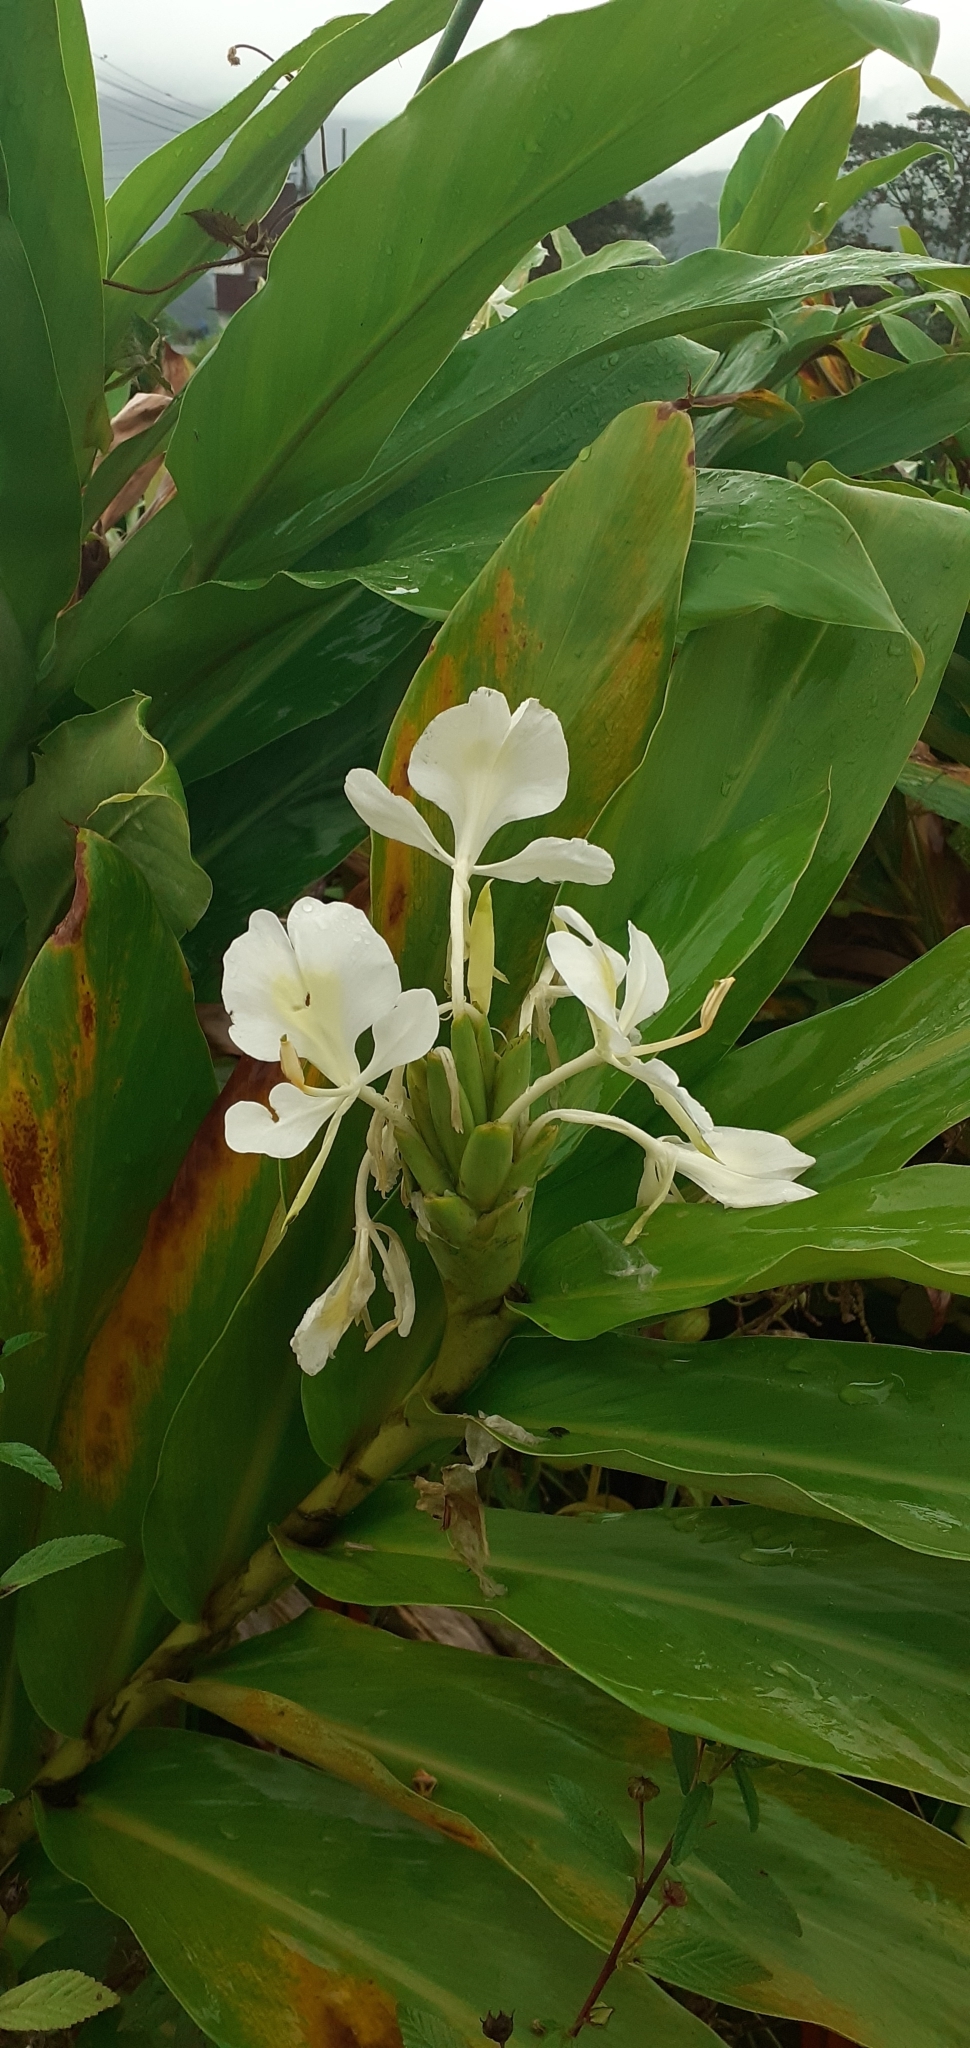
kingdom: Plantae
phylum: Tracheophyta
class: Liliopsida
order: Zingiberales
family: Zingiberaceae
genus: Hedychium
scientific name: Hedychium coronarium
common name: White garland-lily
